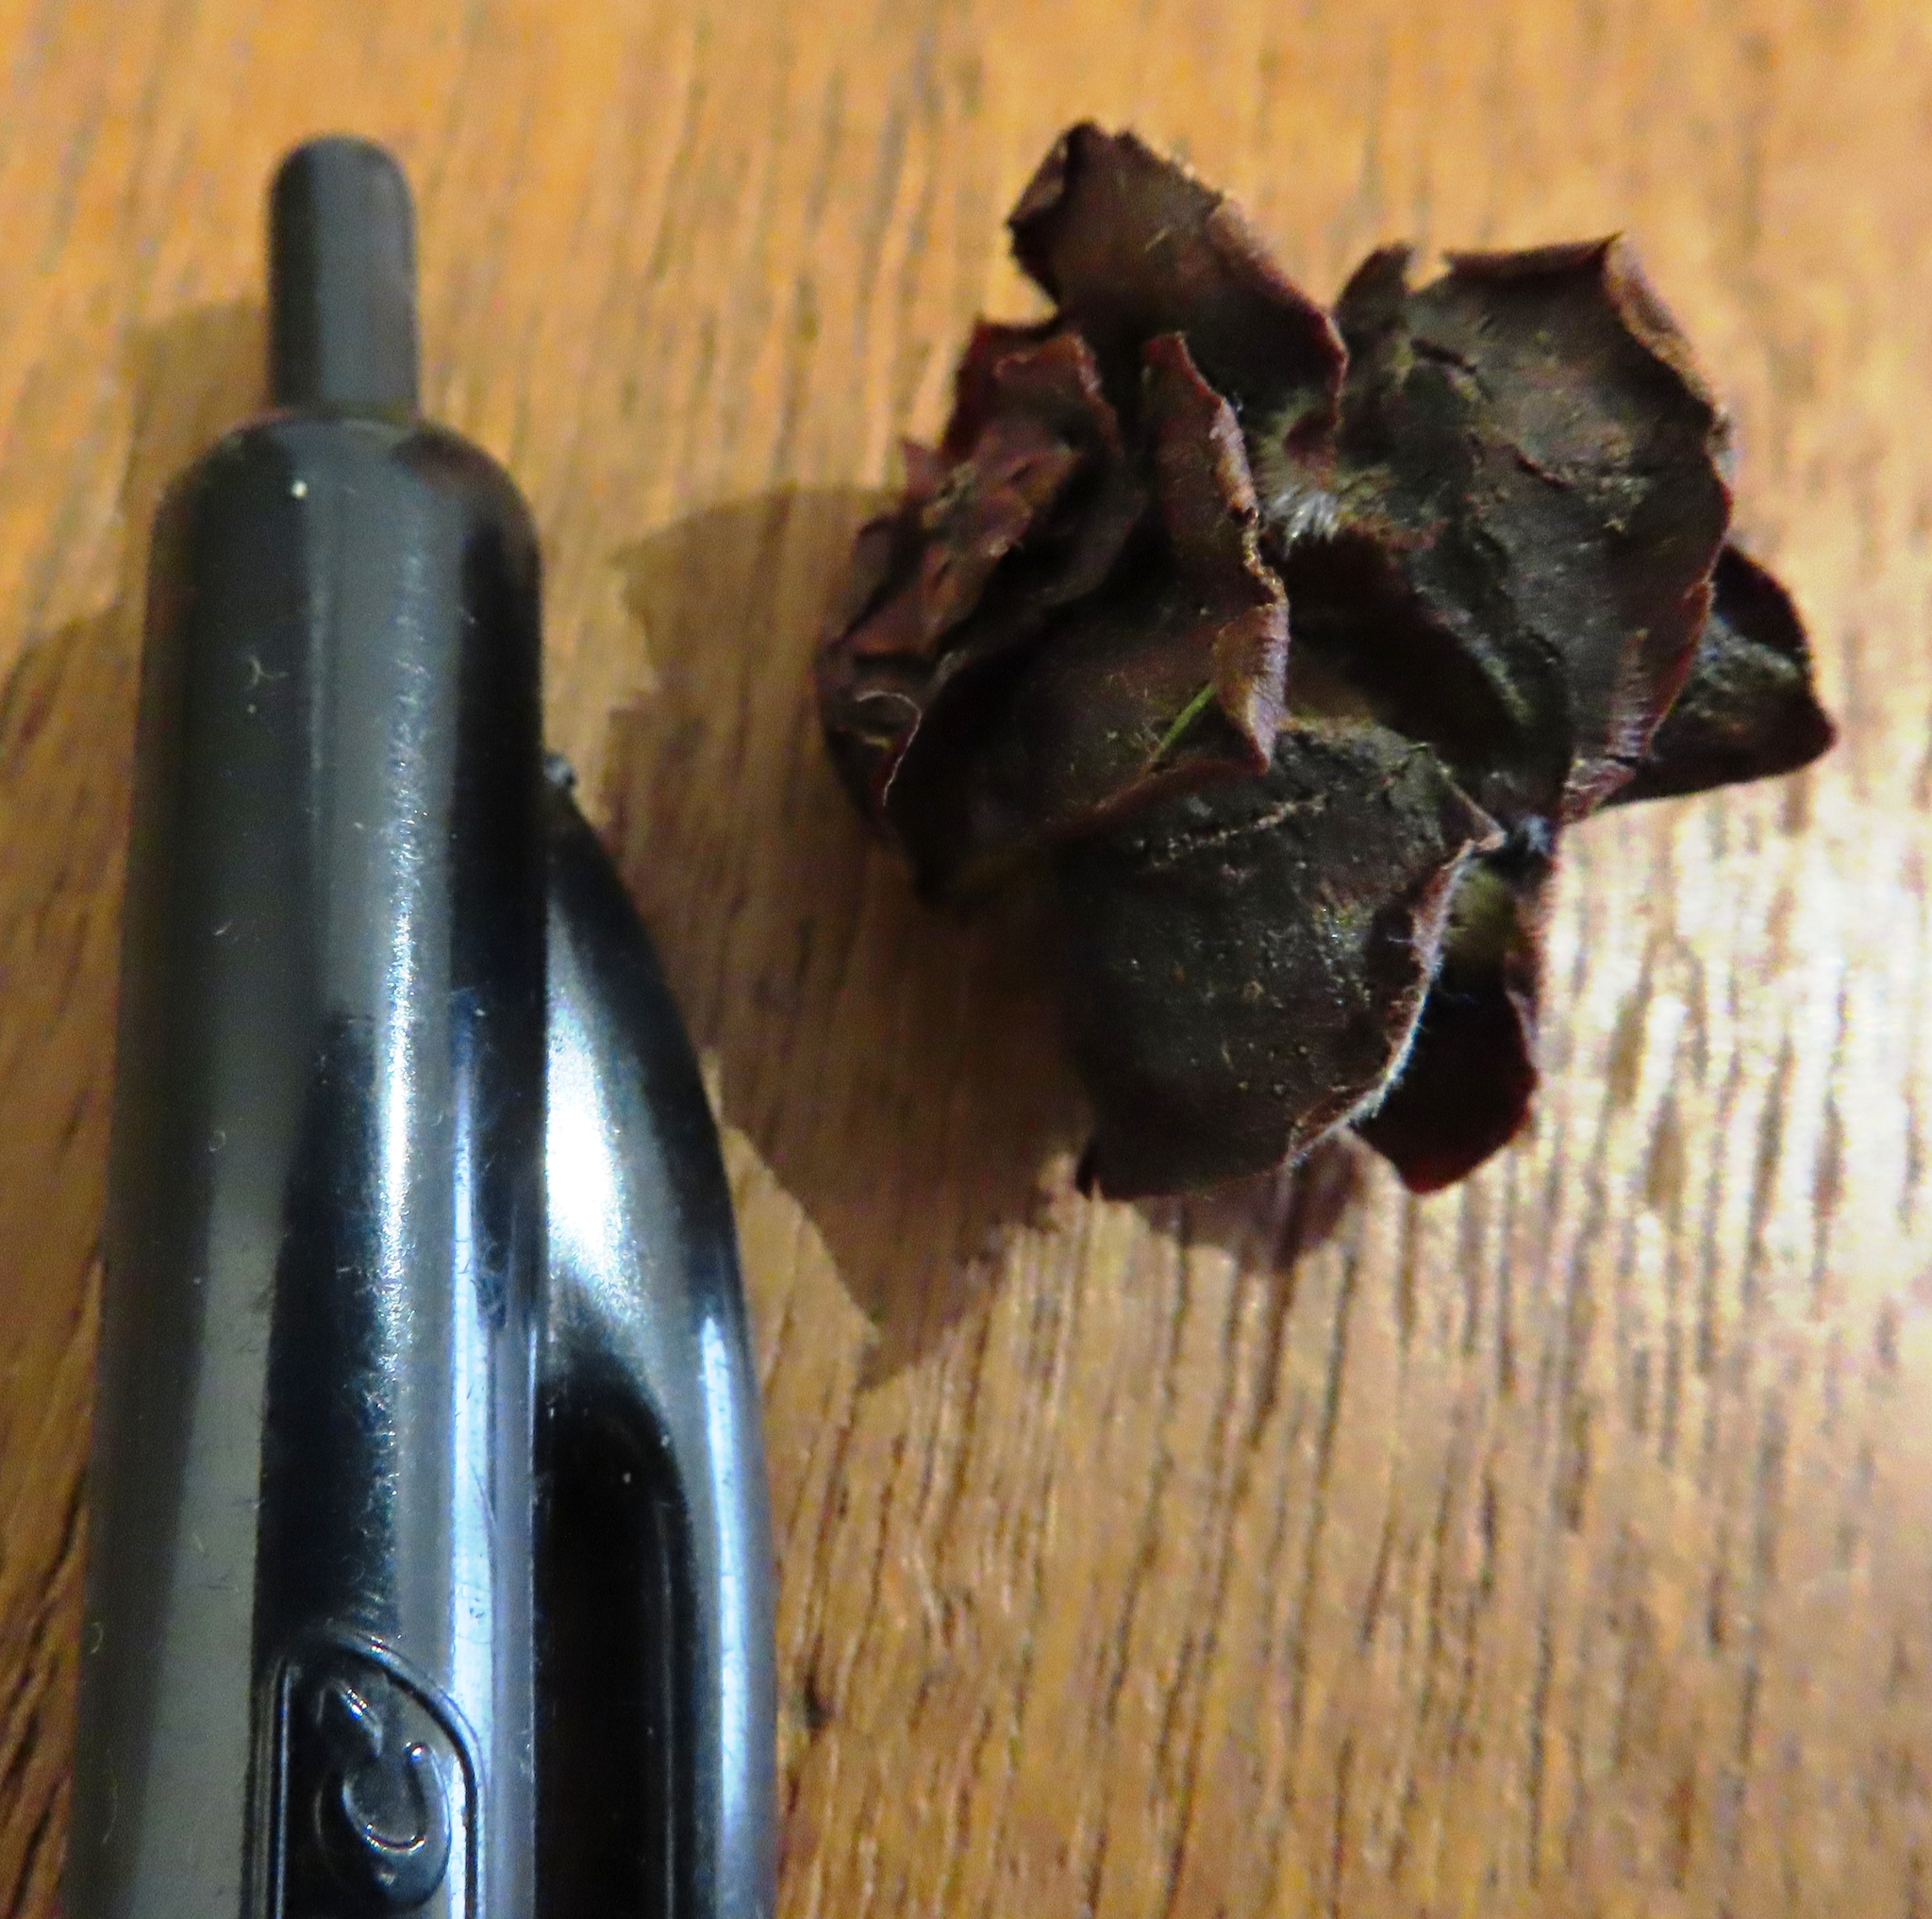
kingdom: Plantae
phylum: Tracheophyta
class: Magnoliopsida
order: Proteales
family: Proteaceae
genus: Leucadendron
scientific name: Leucadendron glaberrimum
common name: Common oily conebush
